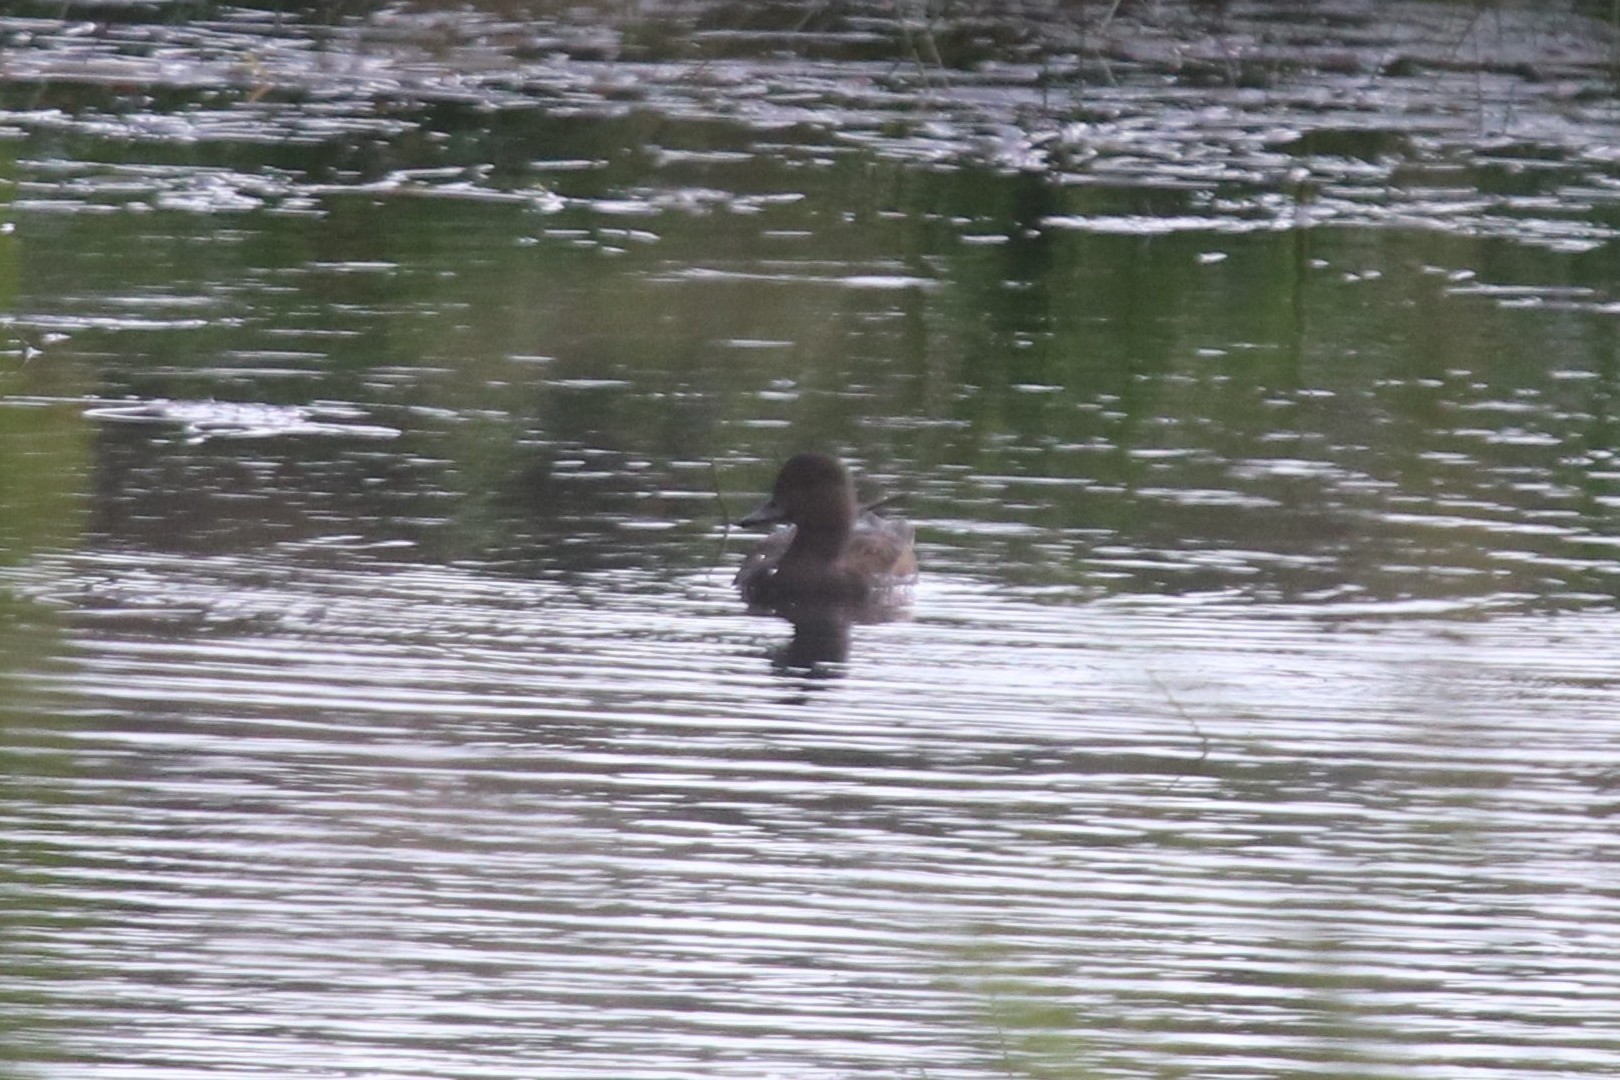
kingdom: Animalia
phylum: Chordata
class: Aves
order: Anseriformes
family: Anatidae
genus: Mareca
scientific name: Mareca penelope
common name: Eurasian wigeon
